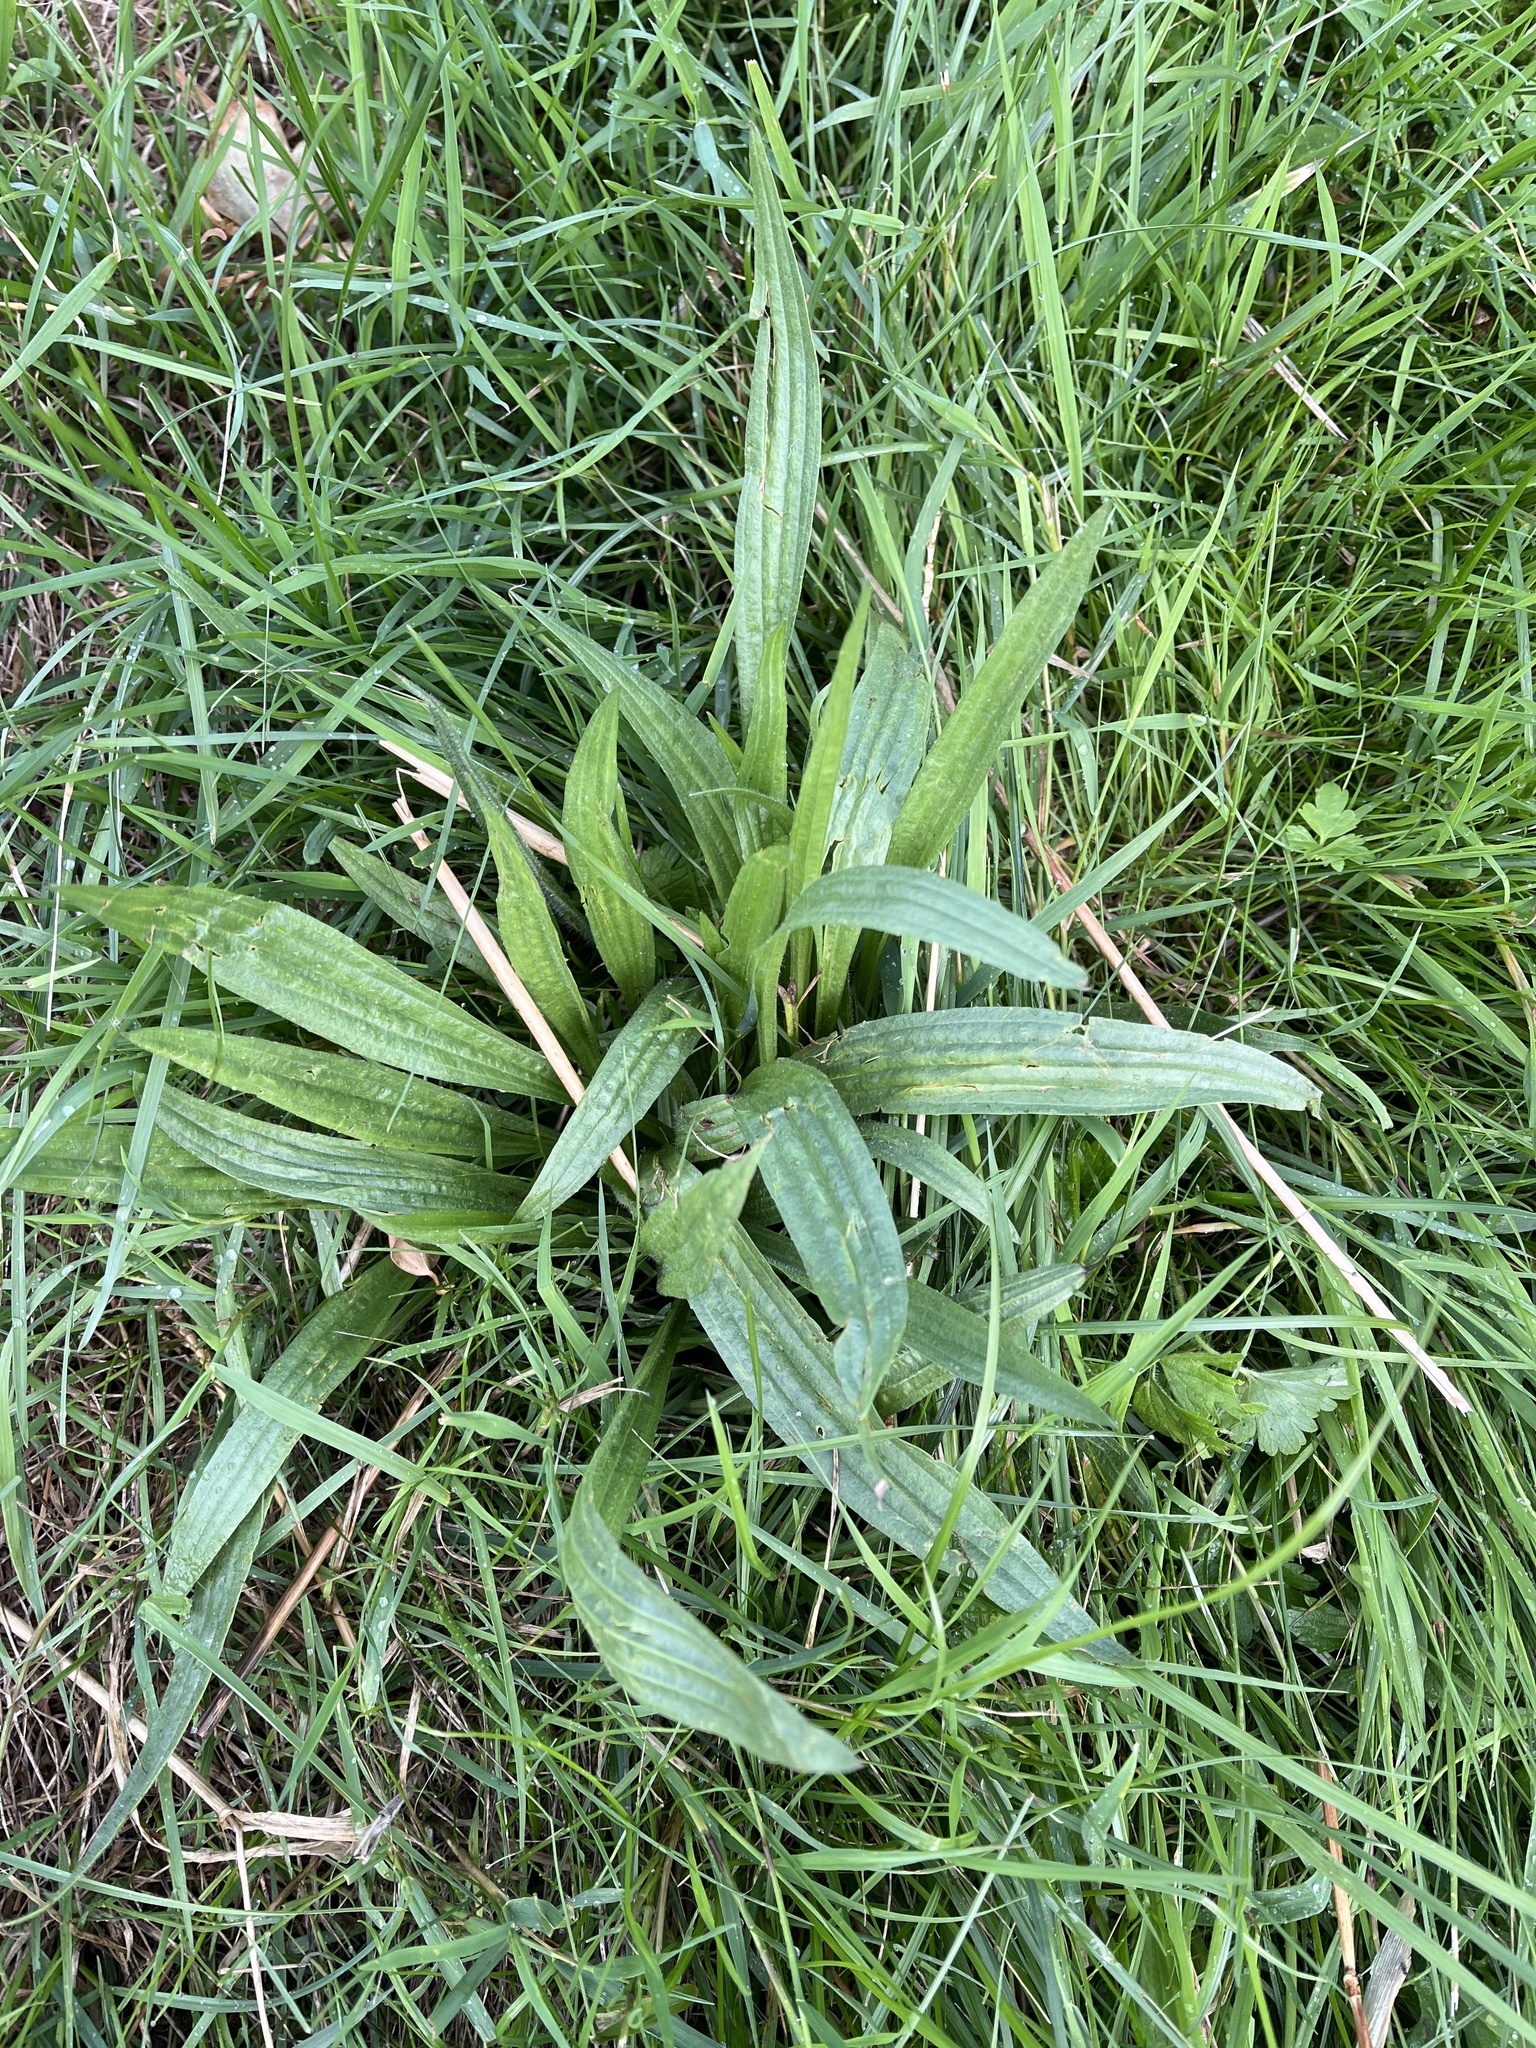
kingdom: Plantae
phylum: Tracheophyta
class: Magnoliopsida
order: Lamiales
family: Plantaginaceae
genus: Plantago
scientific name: Plantago lanceolata
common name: Ribwort plantain
